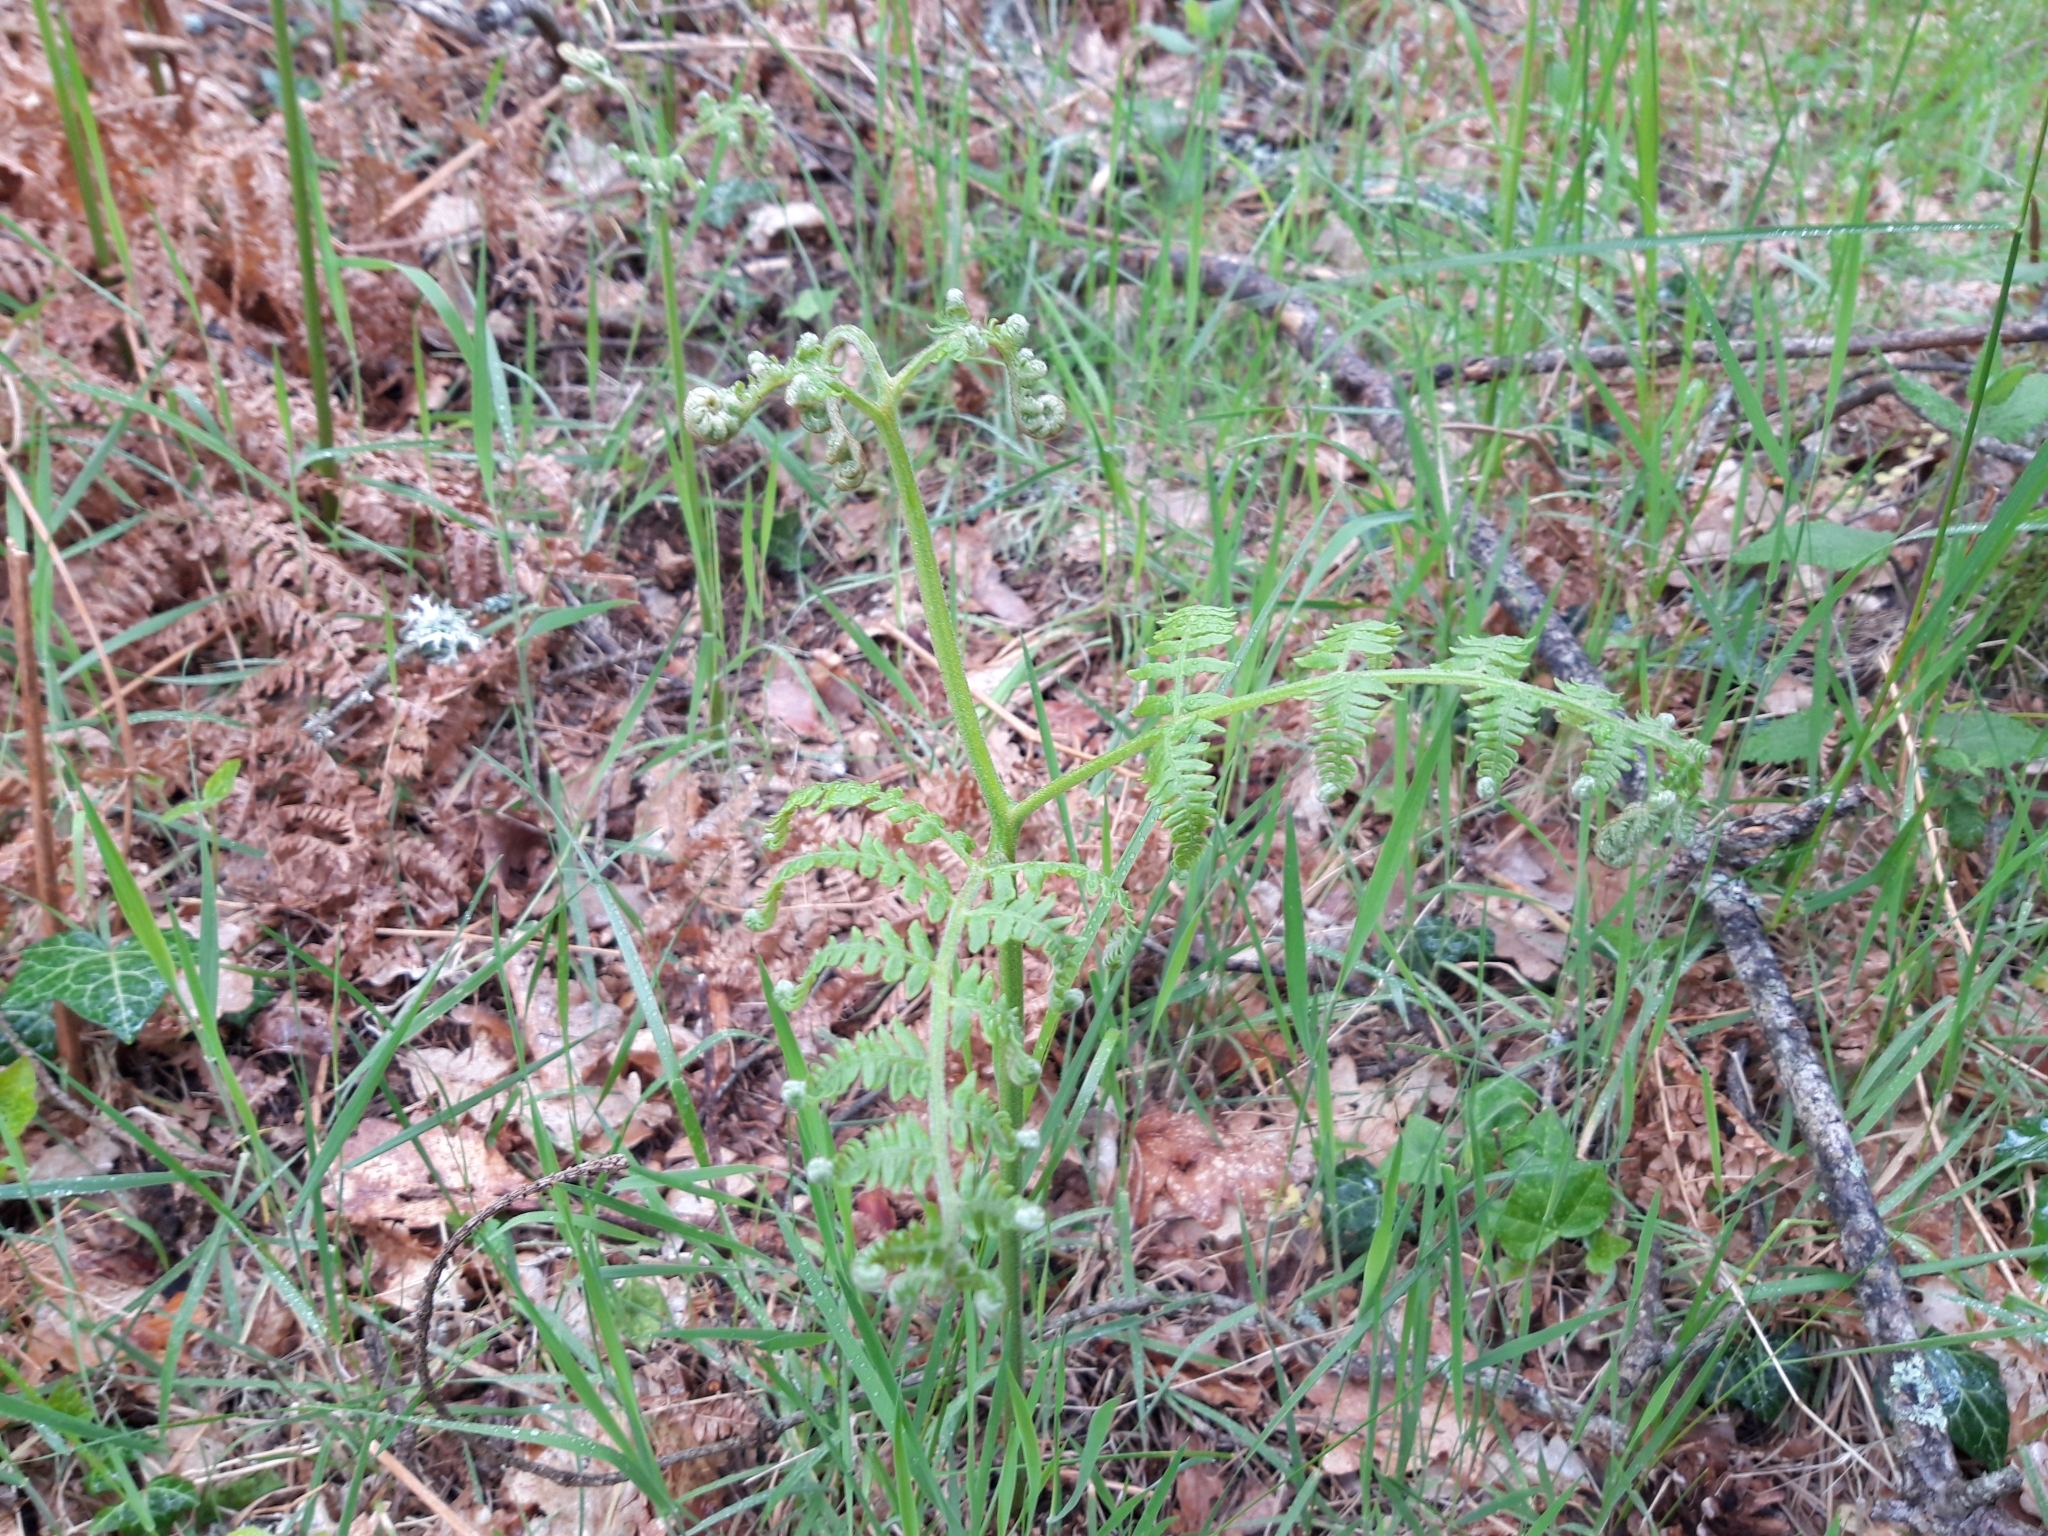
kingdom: Plantae
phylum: Tracheophyta
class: Polypodiopsida
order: Polypodiales
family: Dennstaedtiaceae
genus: Pteridium
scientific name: Pteridium aquilinum
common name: Bracken
